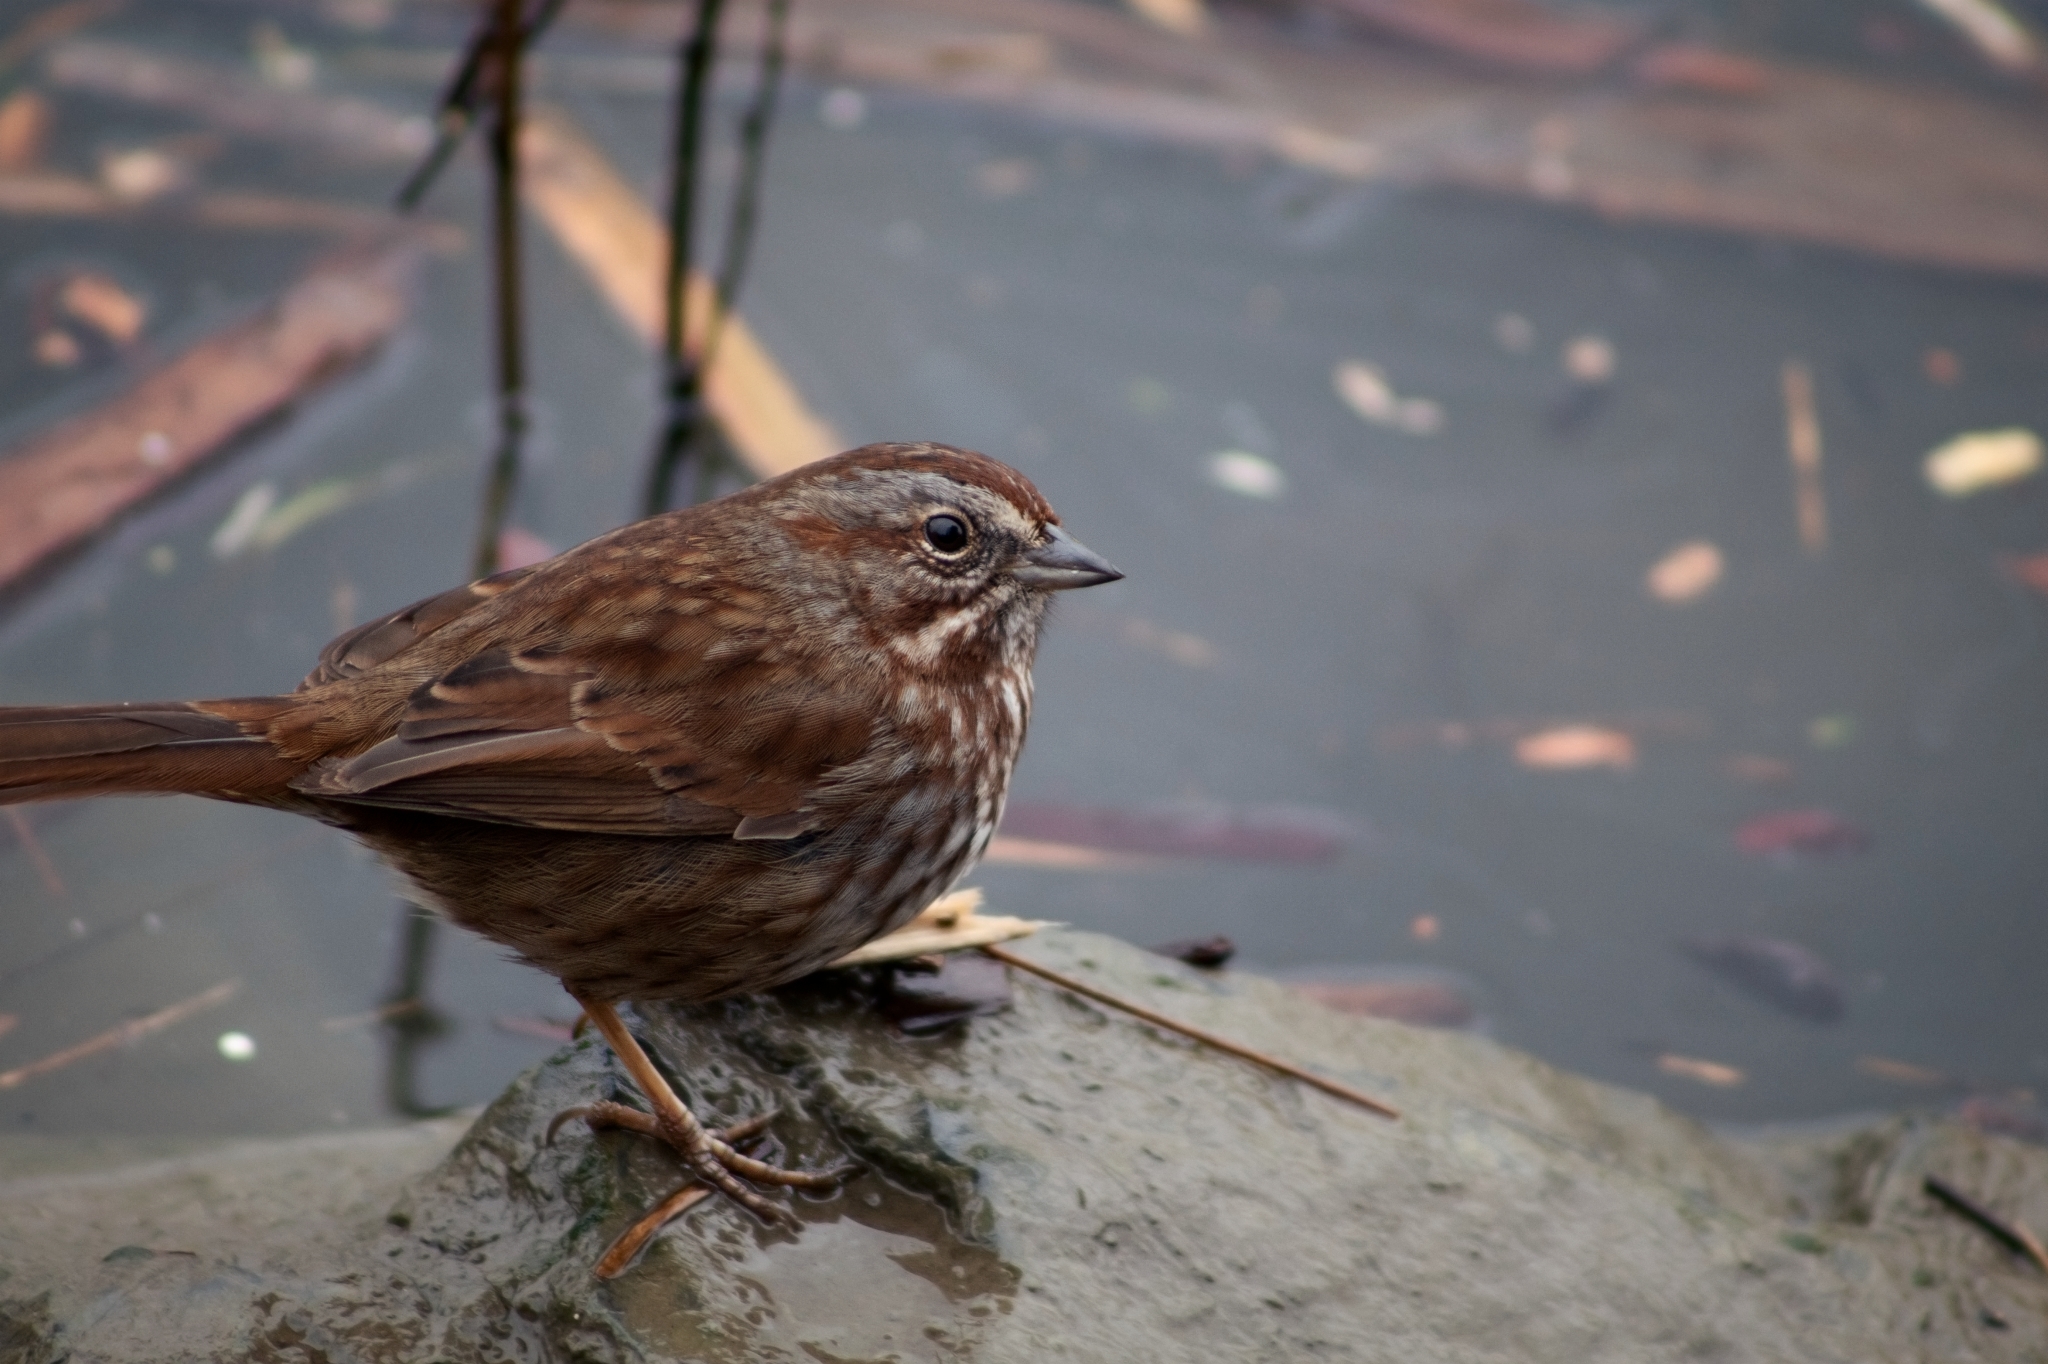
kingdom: Animalia
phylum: Chordata
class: Aves
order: Passeriformes
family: Passerellidae
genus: Melospiza
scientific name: Melospiza melodia
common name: Song sparrow
